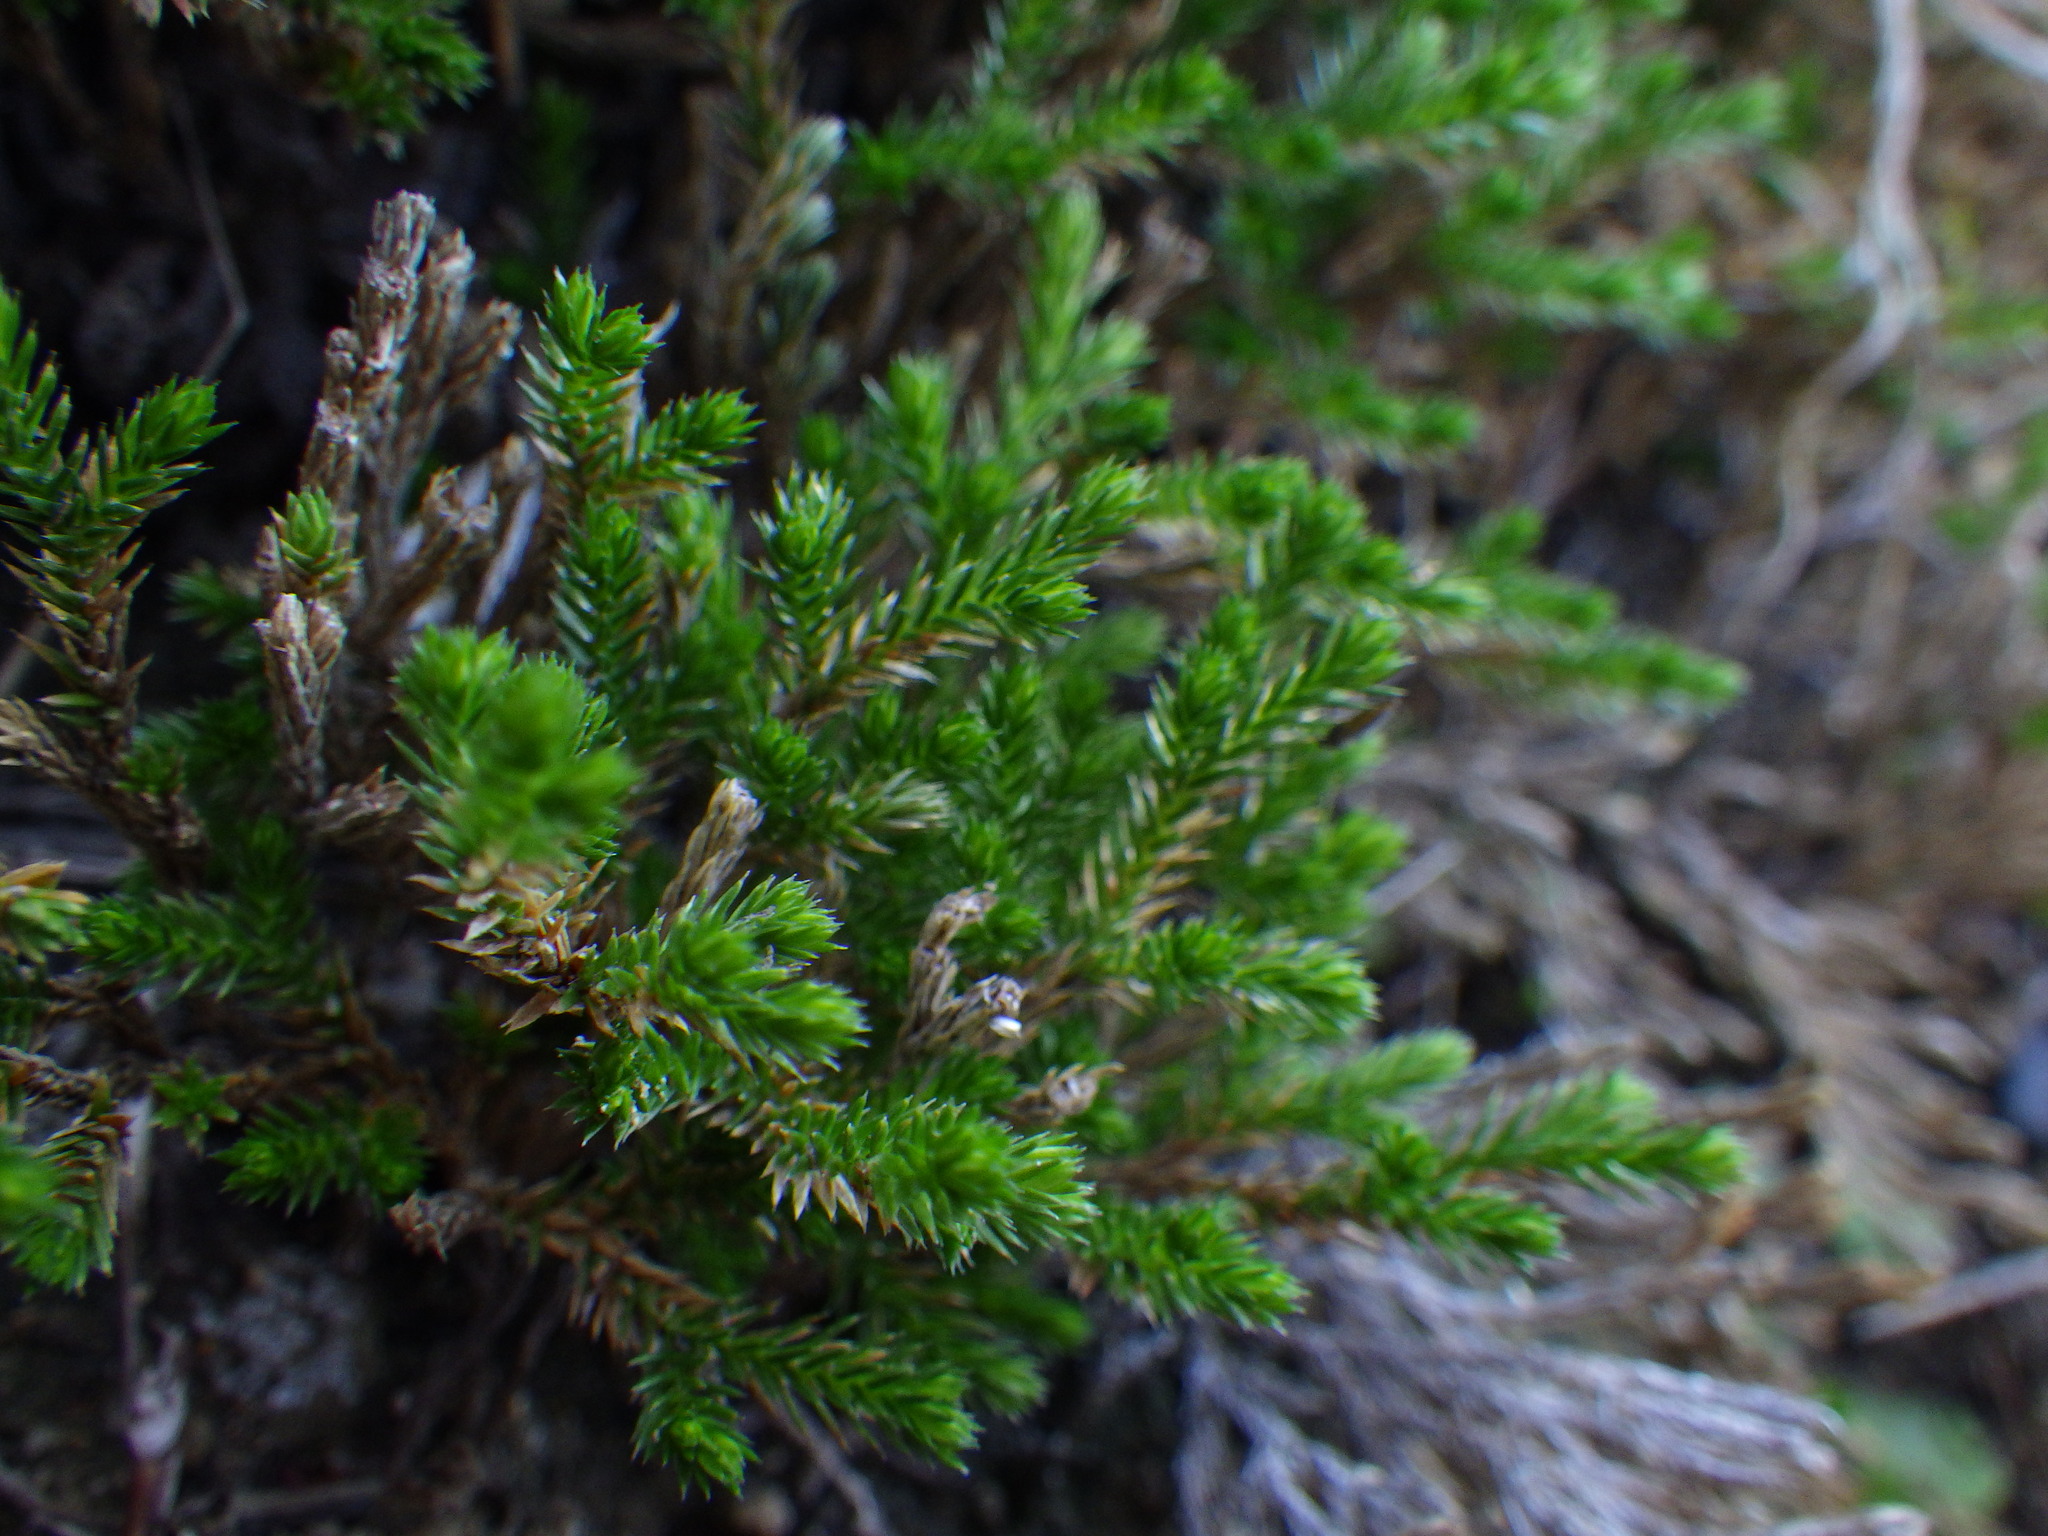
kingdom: Plantae
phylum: Tracheophyta
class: Lycopodiopsida
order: Selaginellales
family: Selaginellaceae
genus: Selaginella
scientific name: Selaginella bigelovii
